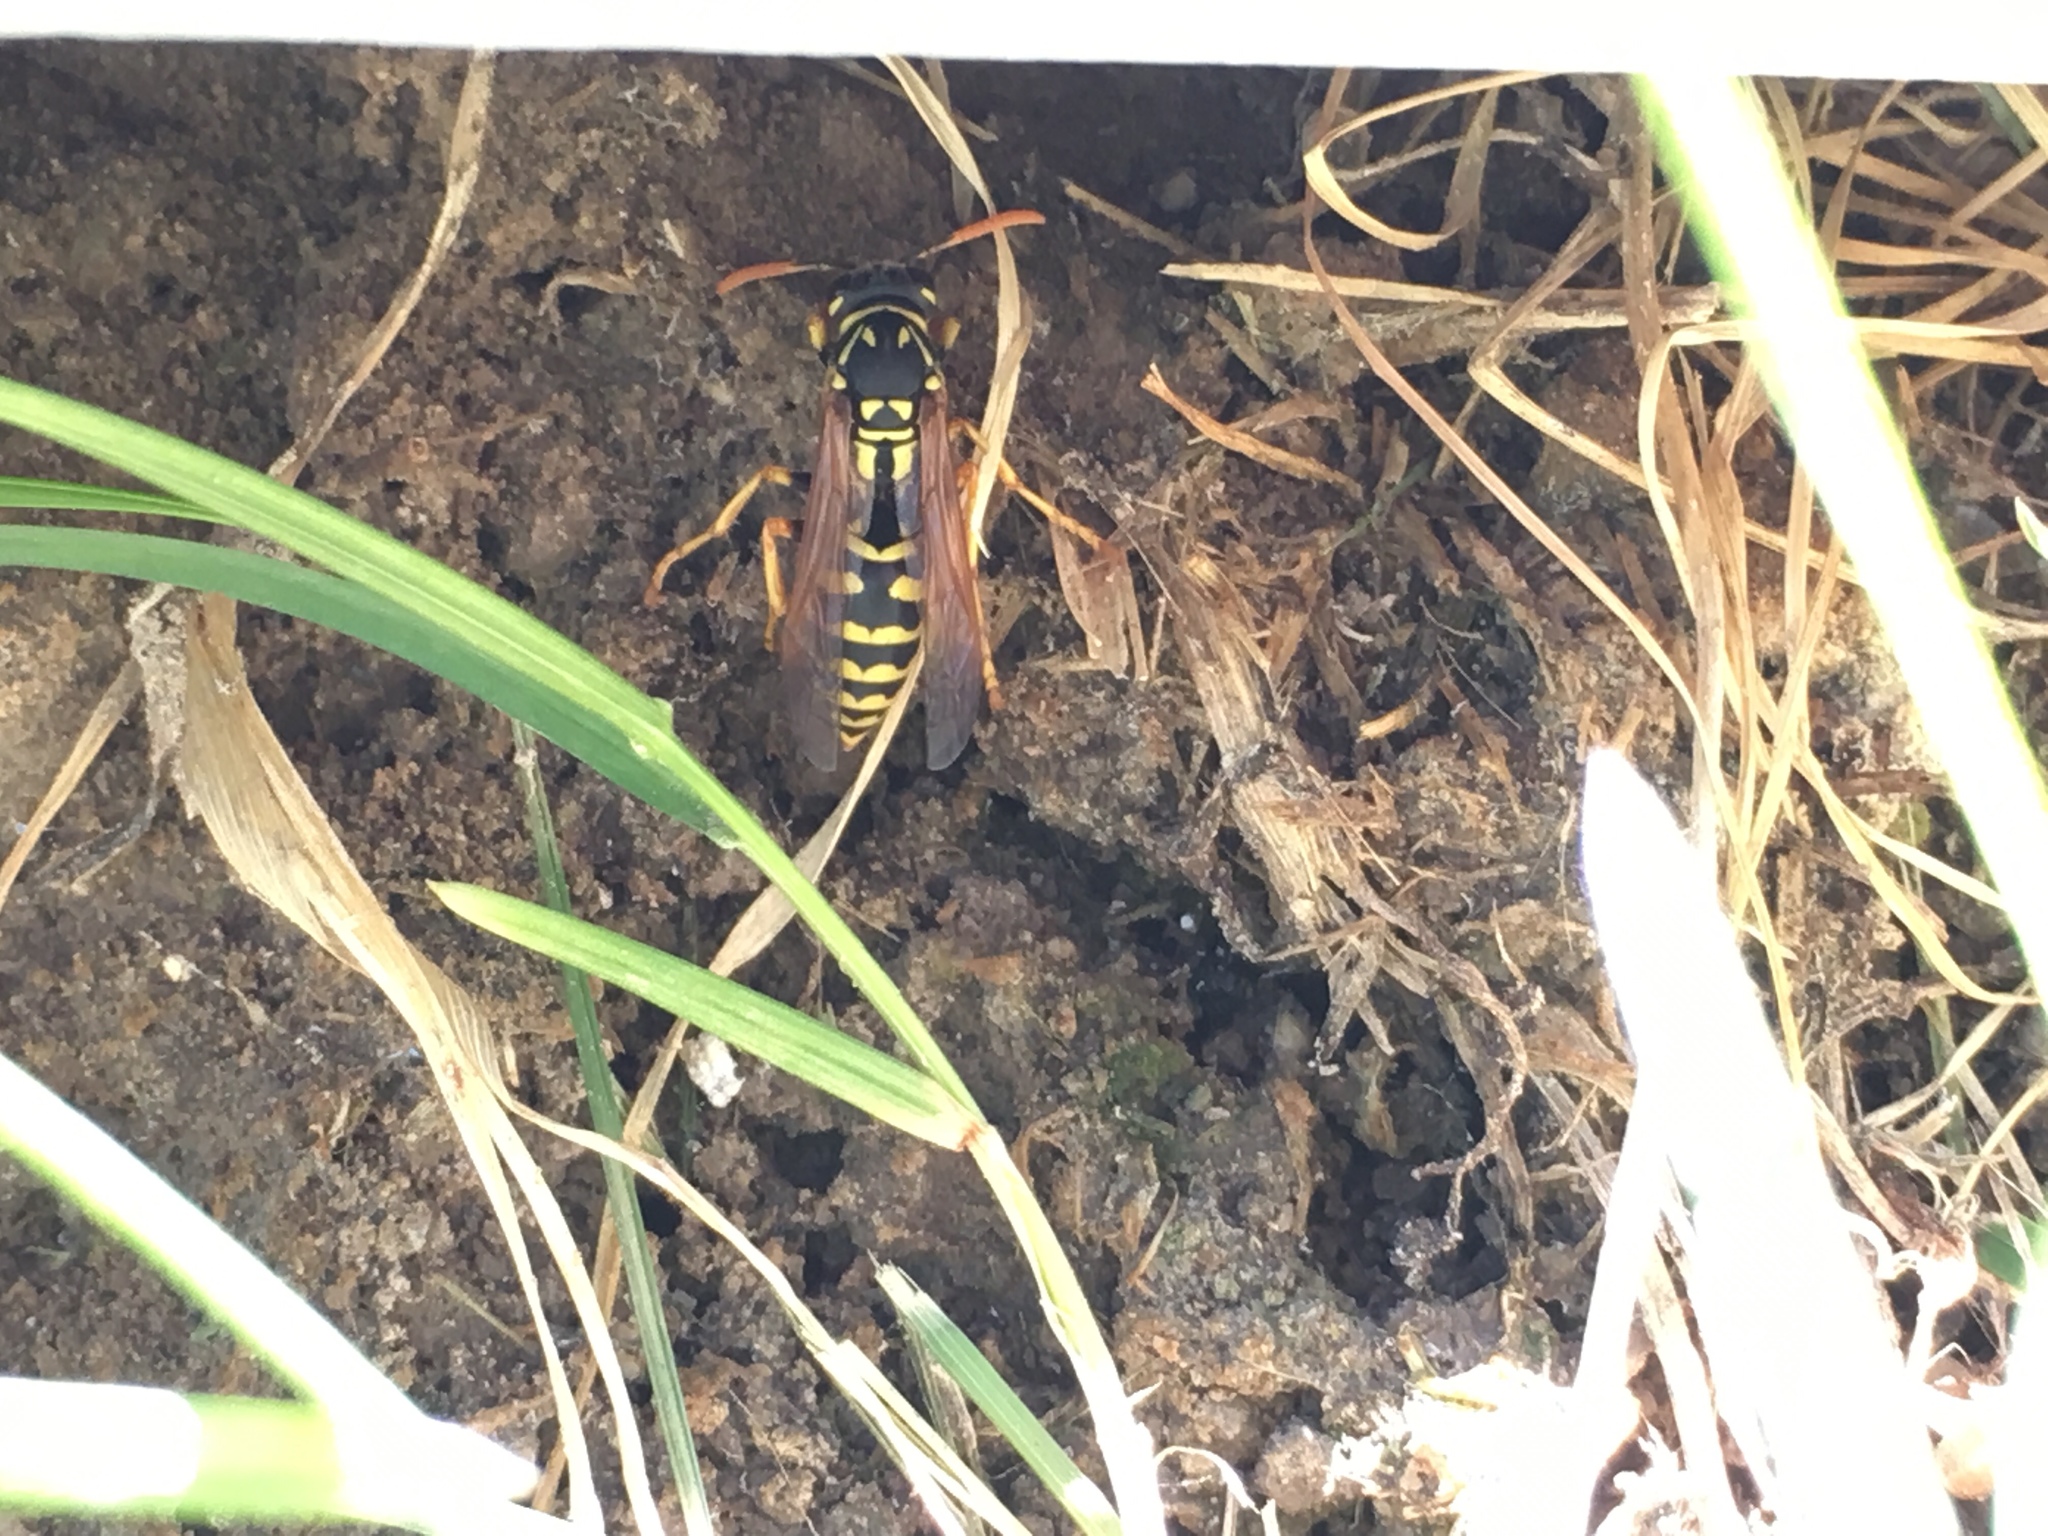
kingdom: Animalia
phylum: Arthropoda
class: Insecta
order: Hymenoptera
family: Eumenidae
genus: Polistes
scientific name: Polistes dominula
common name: Paper wasp
